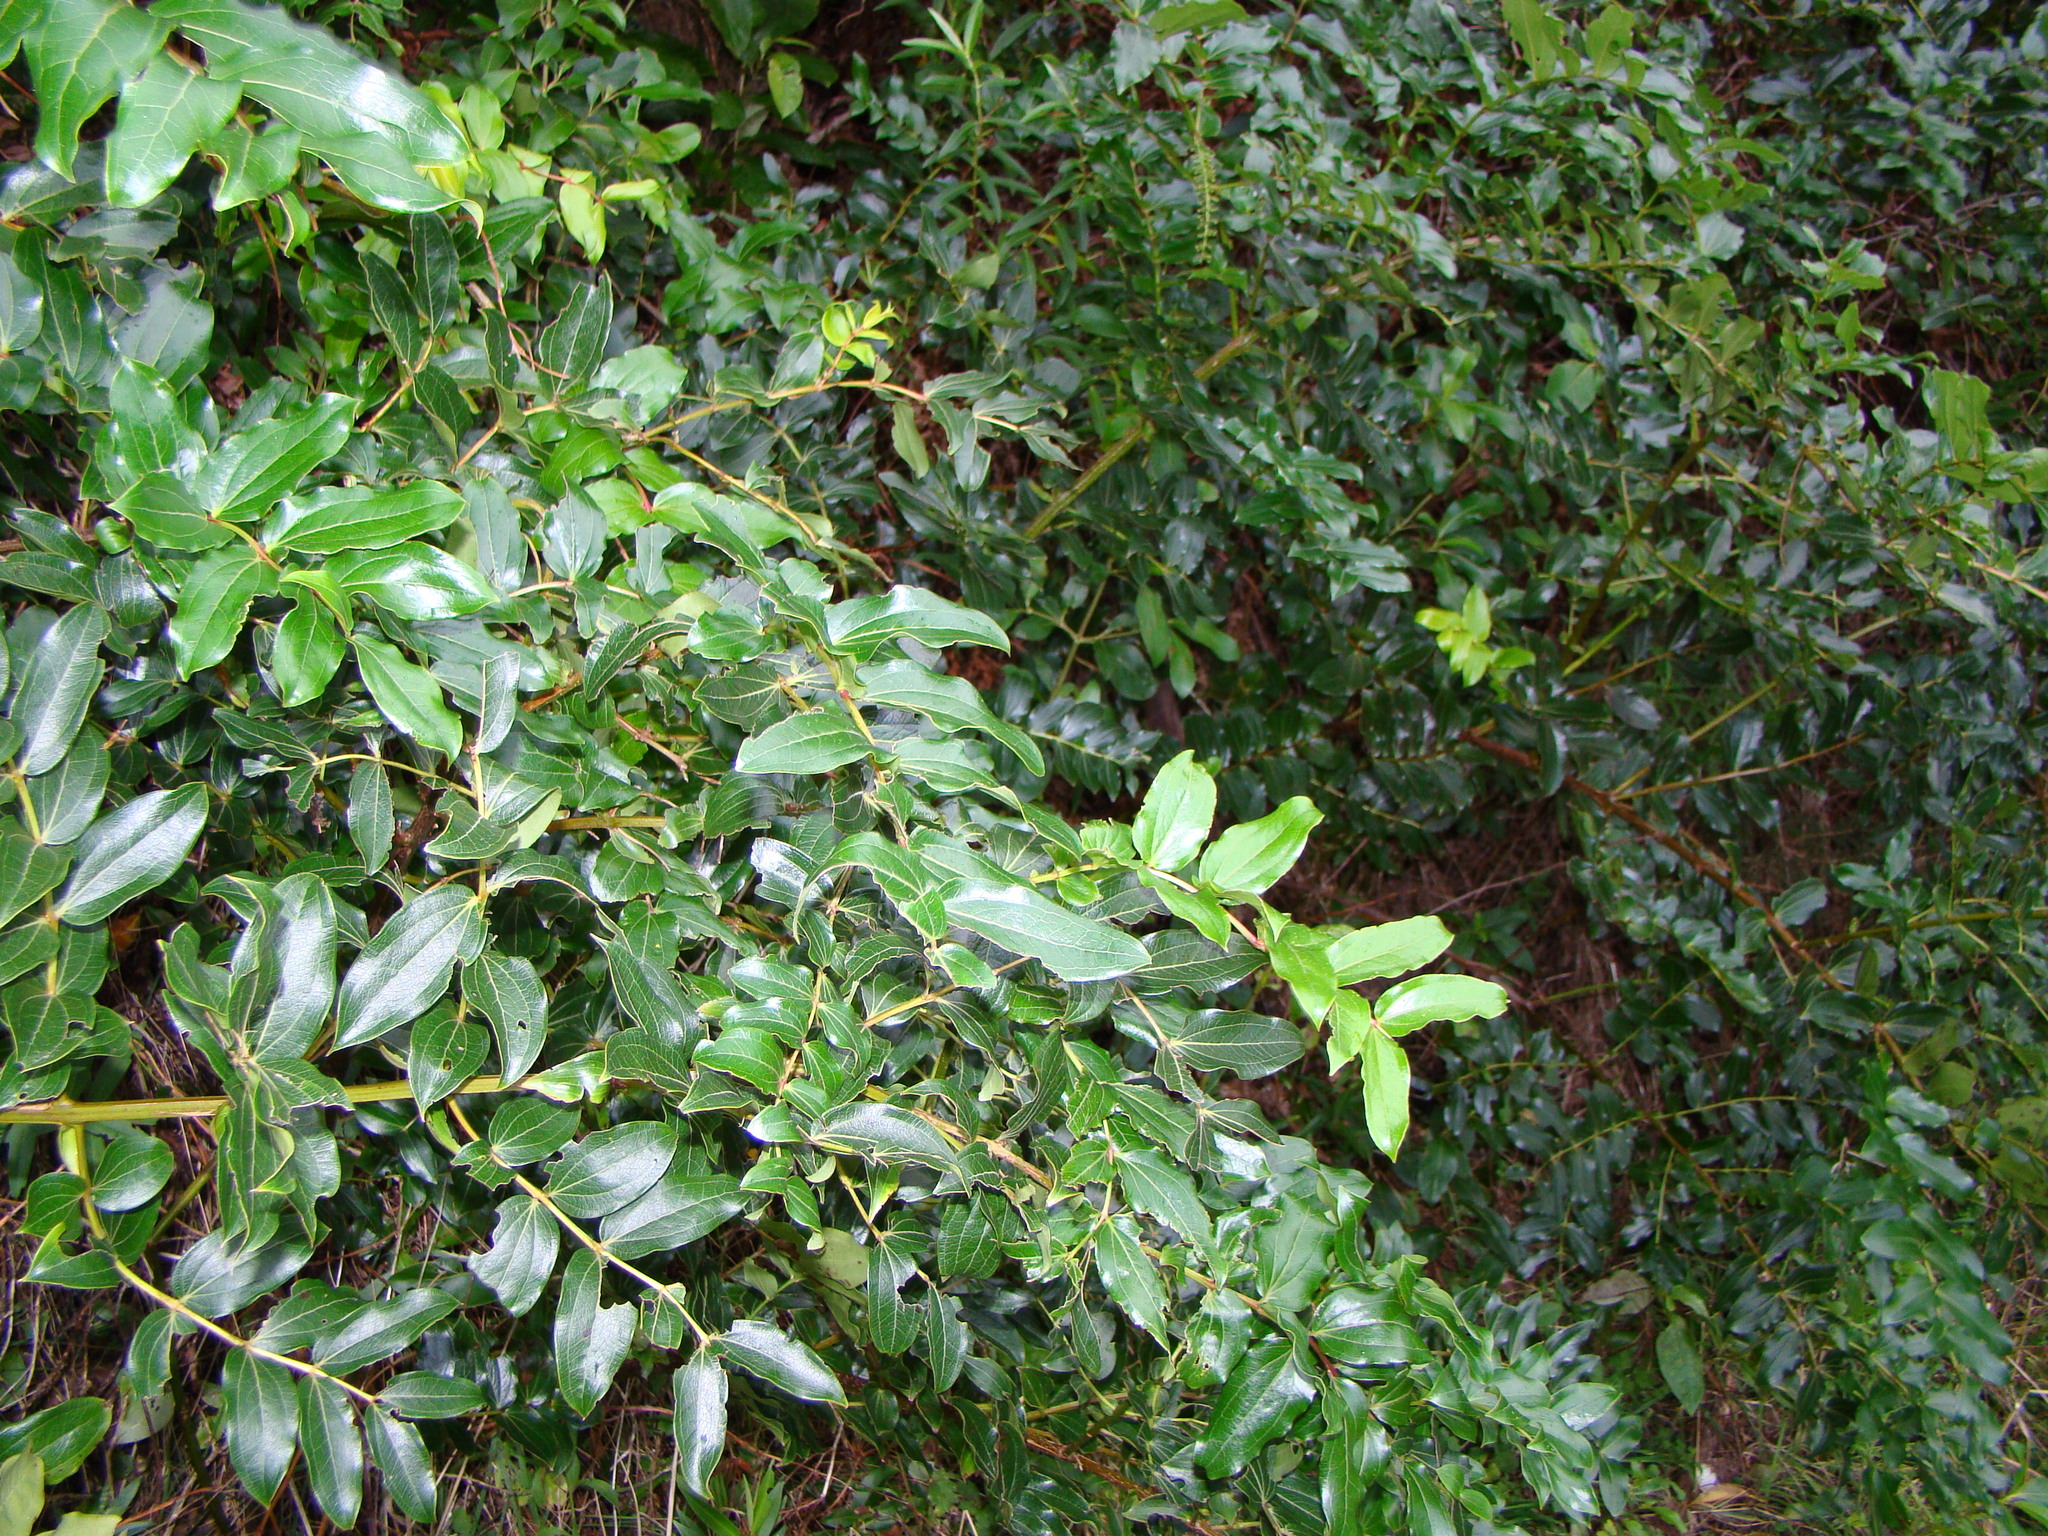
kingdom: Plantae
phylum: Tracheophyta
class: Magnoliopsida
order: Cucurbitales
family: Coriariaceae
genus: Coriaria
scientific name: Coriaria arborea
